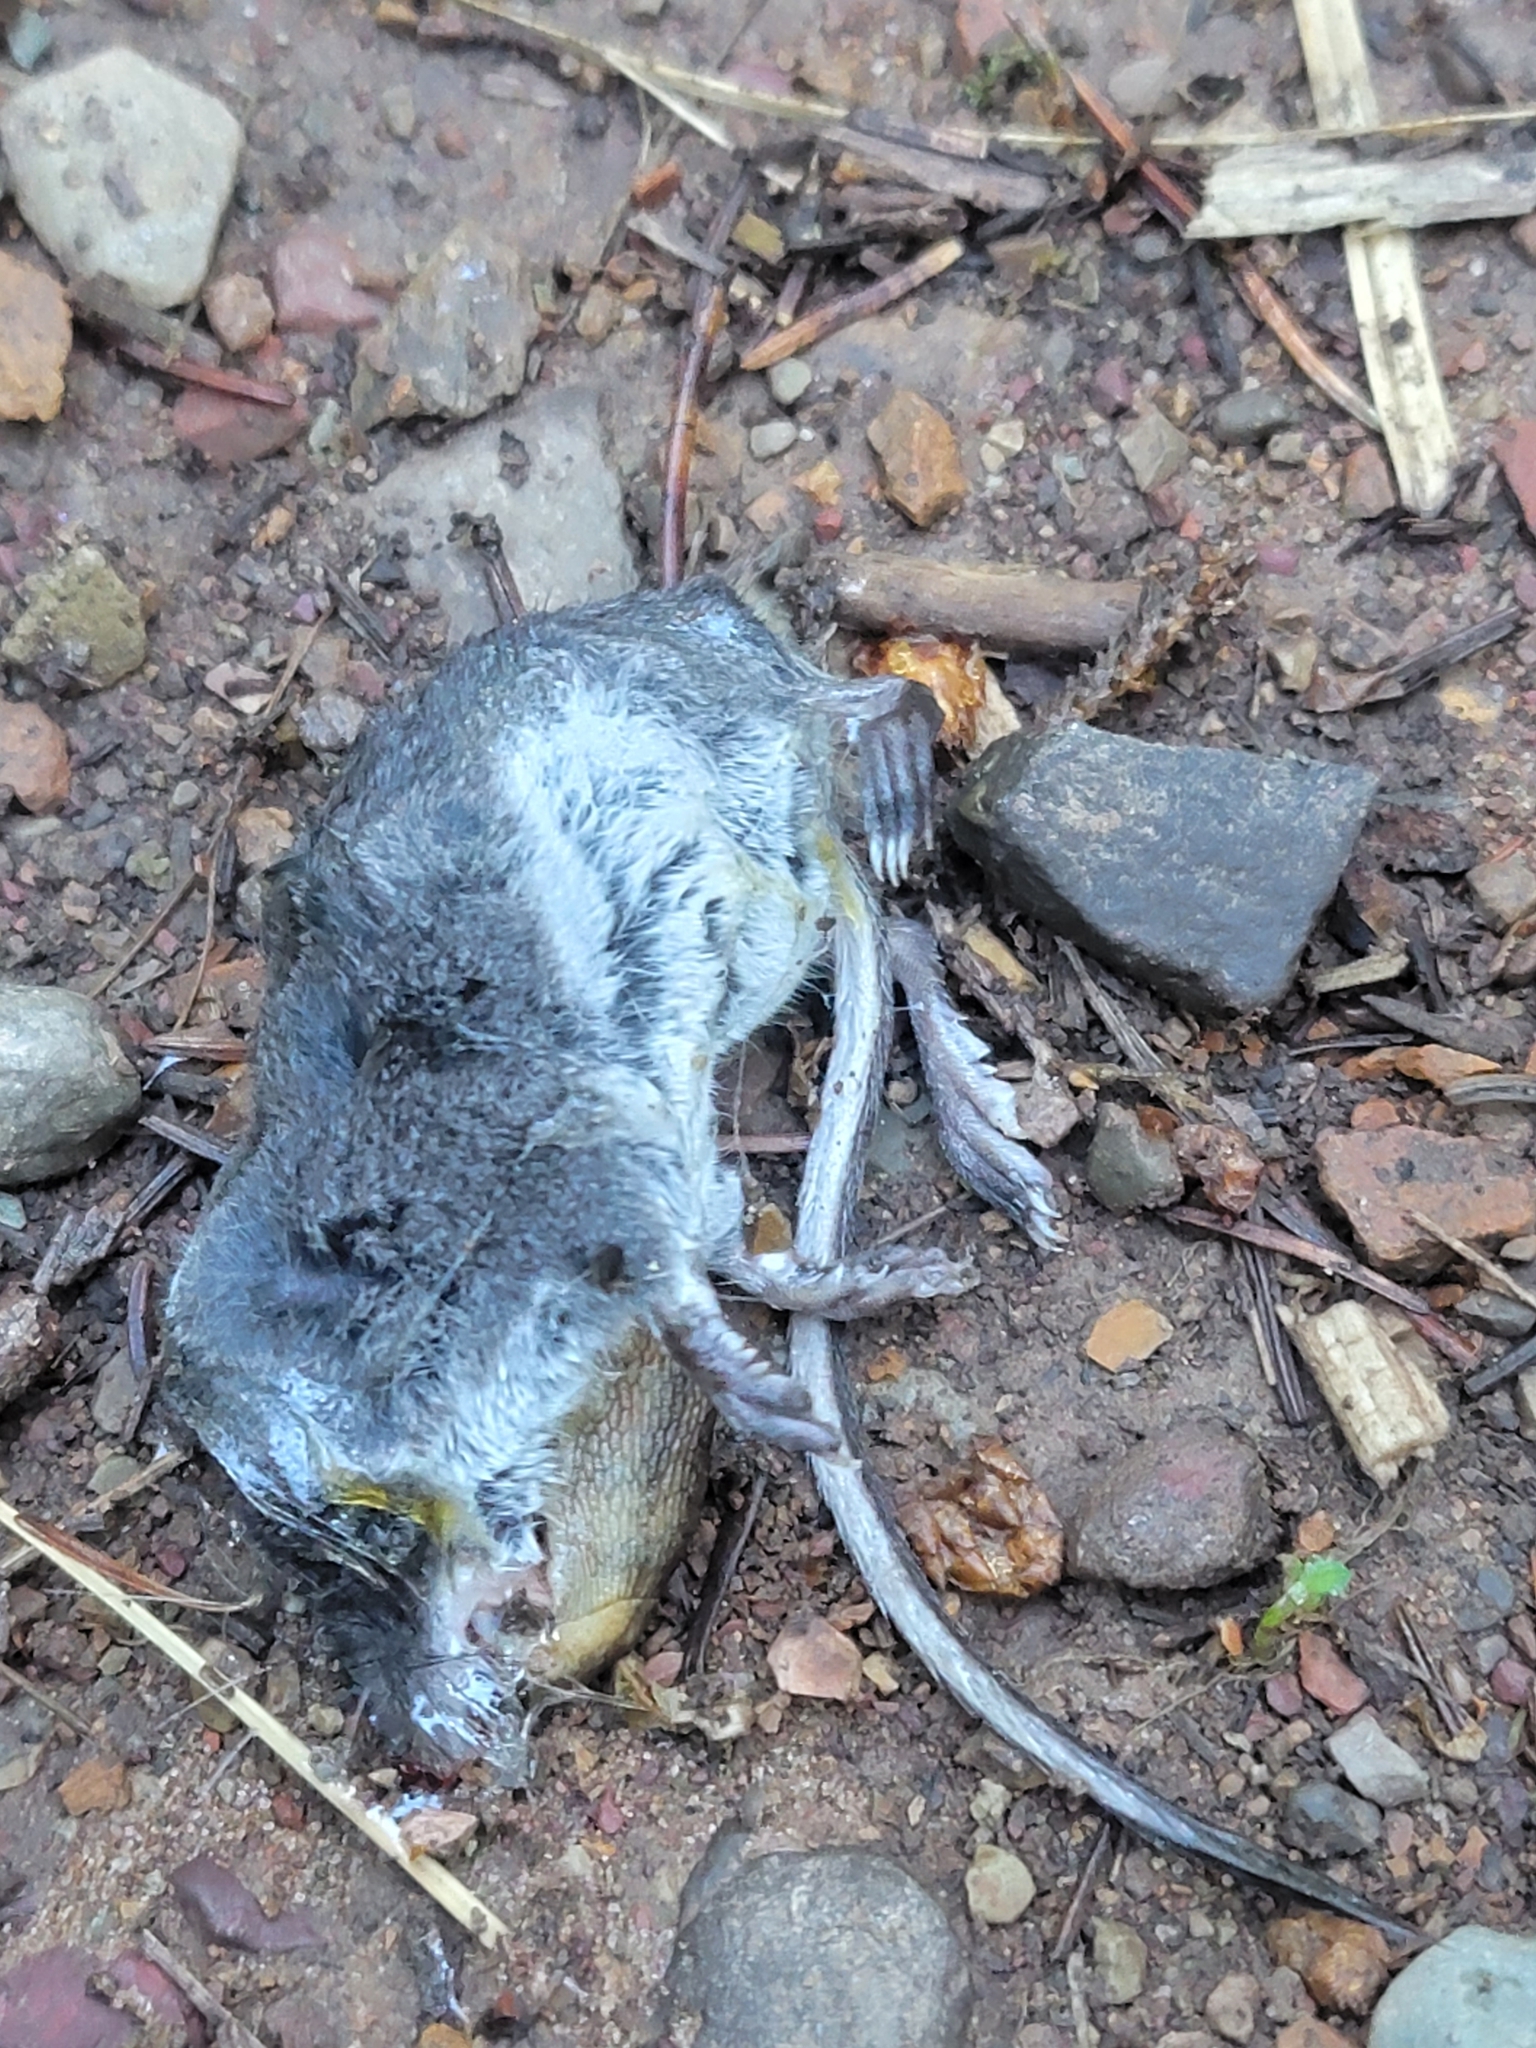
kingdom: Animalia
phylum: Chordata
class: Mammalia
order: Rodentia
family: Cricetidae
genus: Peromyscus
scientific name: Peromyscus maniculatus
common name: Deer mouse
